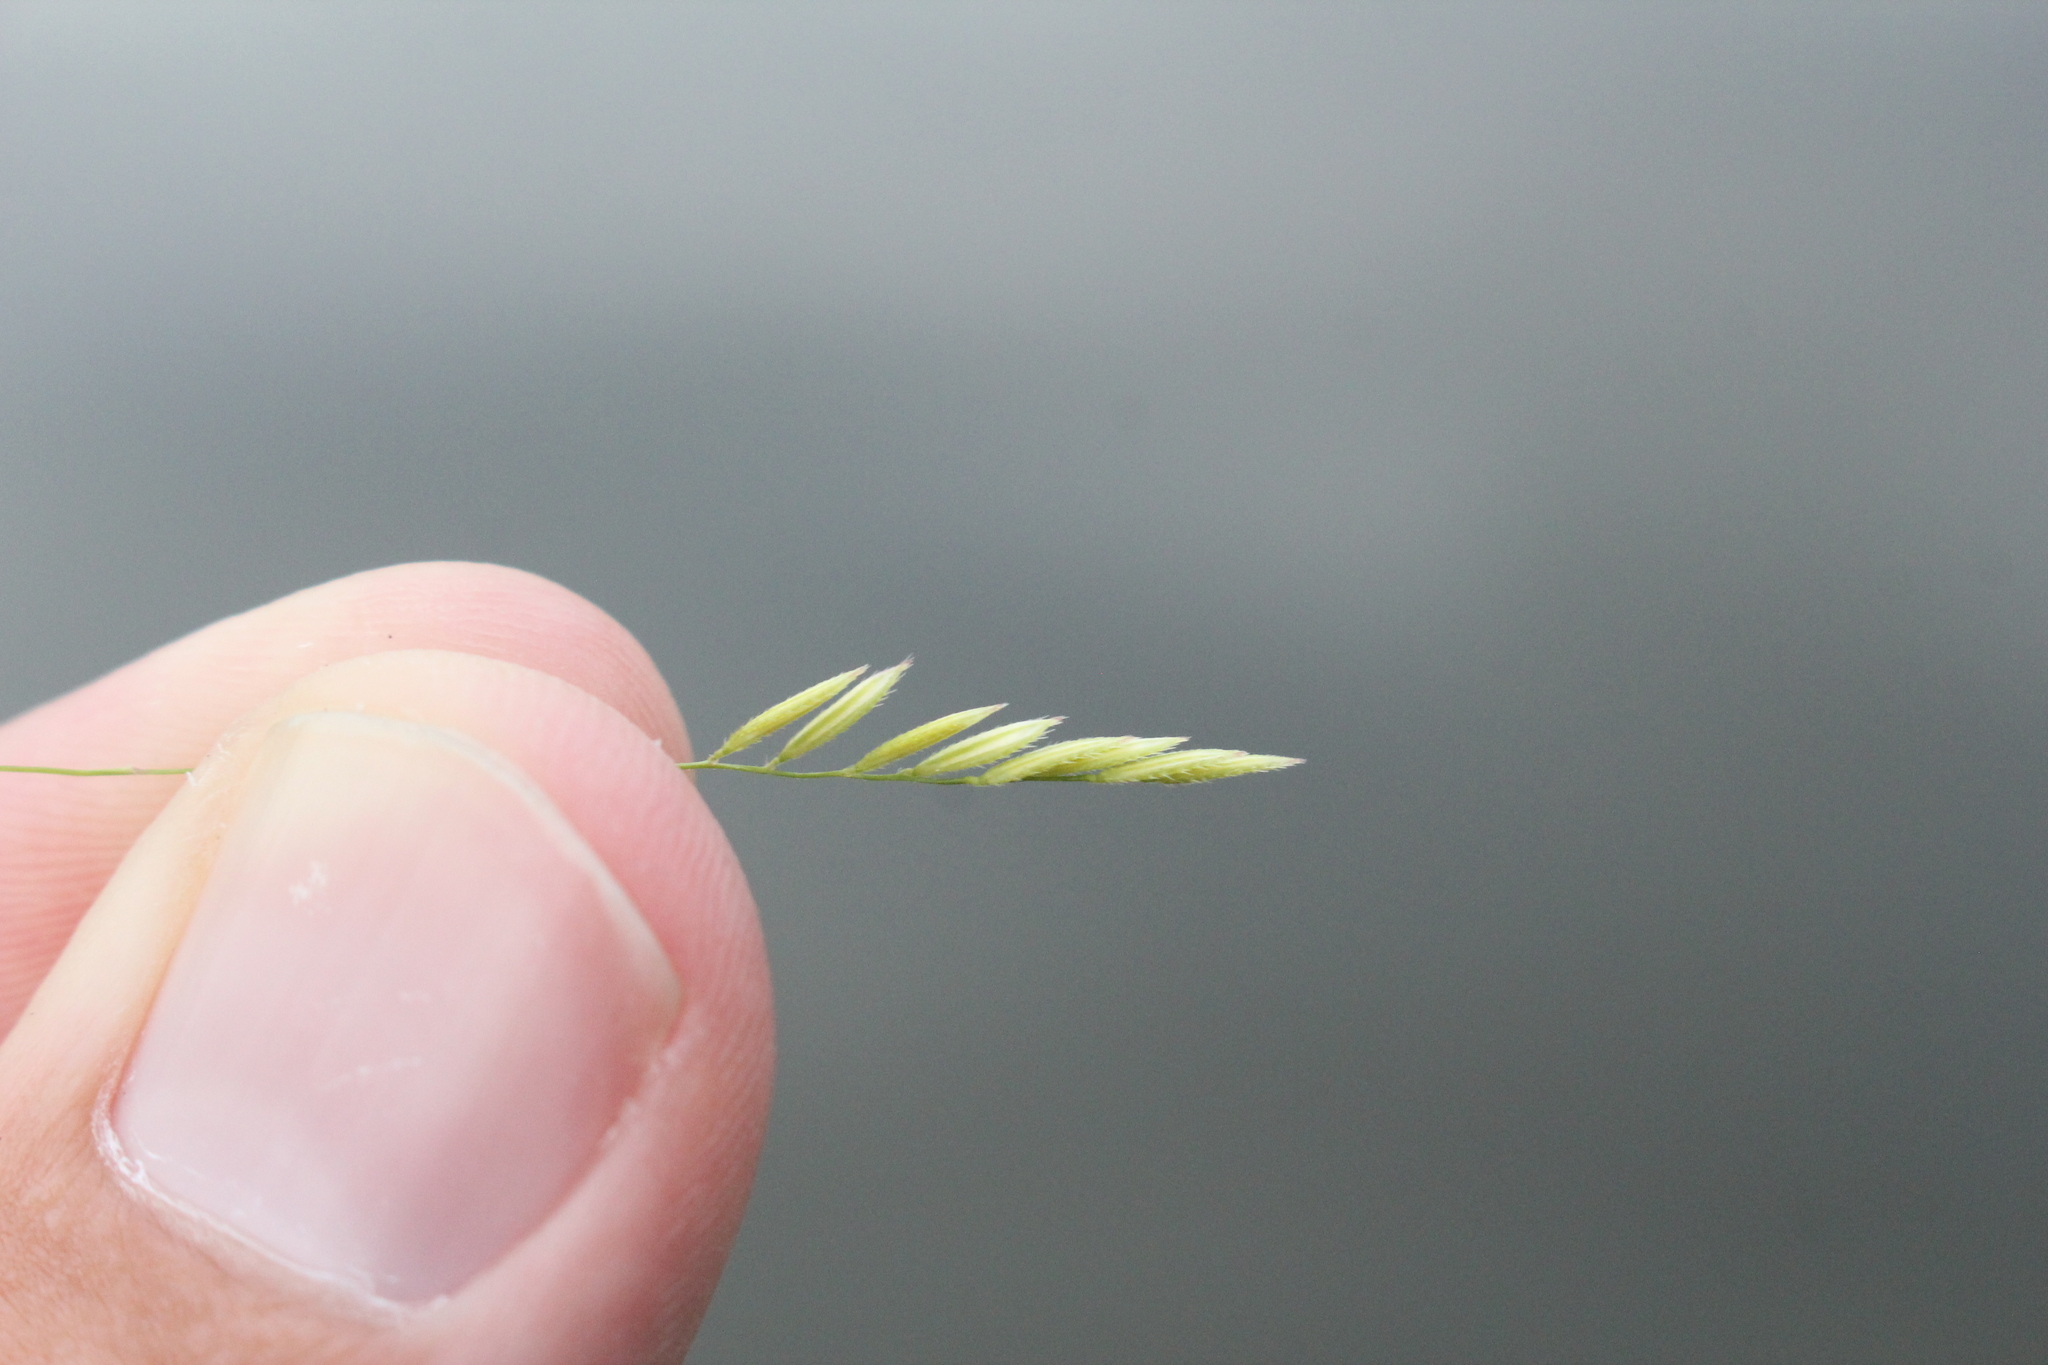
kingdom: Plantae
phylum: Tracheophyta
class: Liliopsida
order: Poales
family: Poaceae
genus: Leersia
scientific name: Leersia oryzoides
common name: Cut-grass
